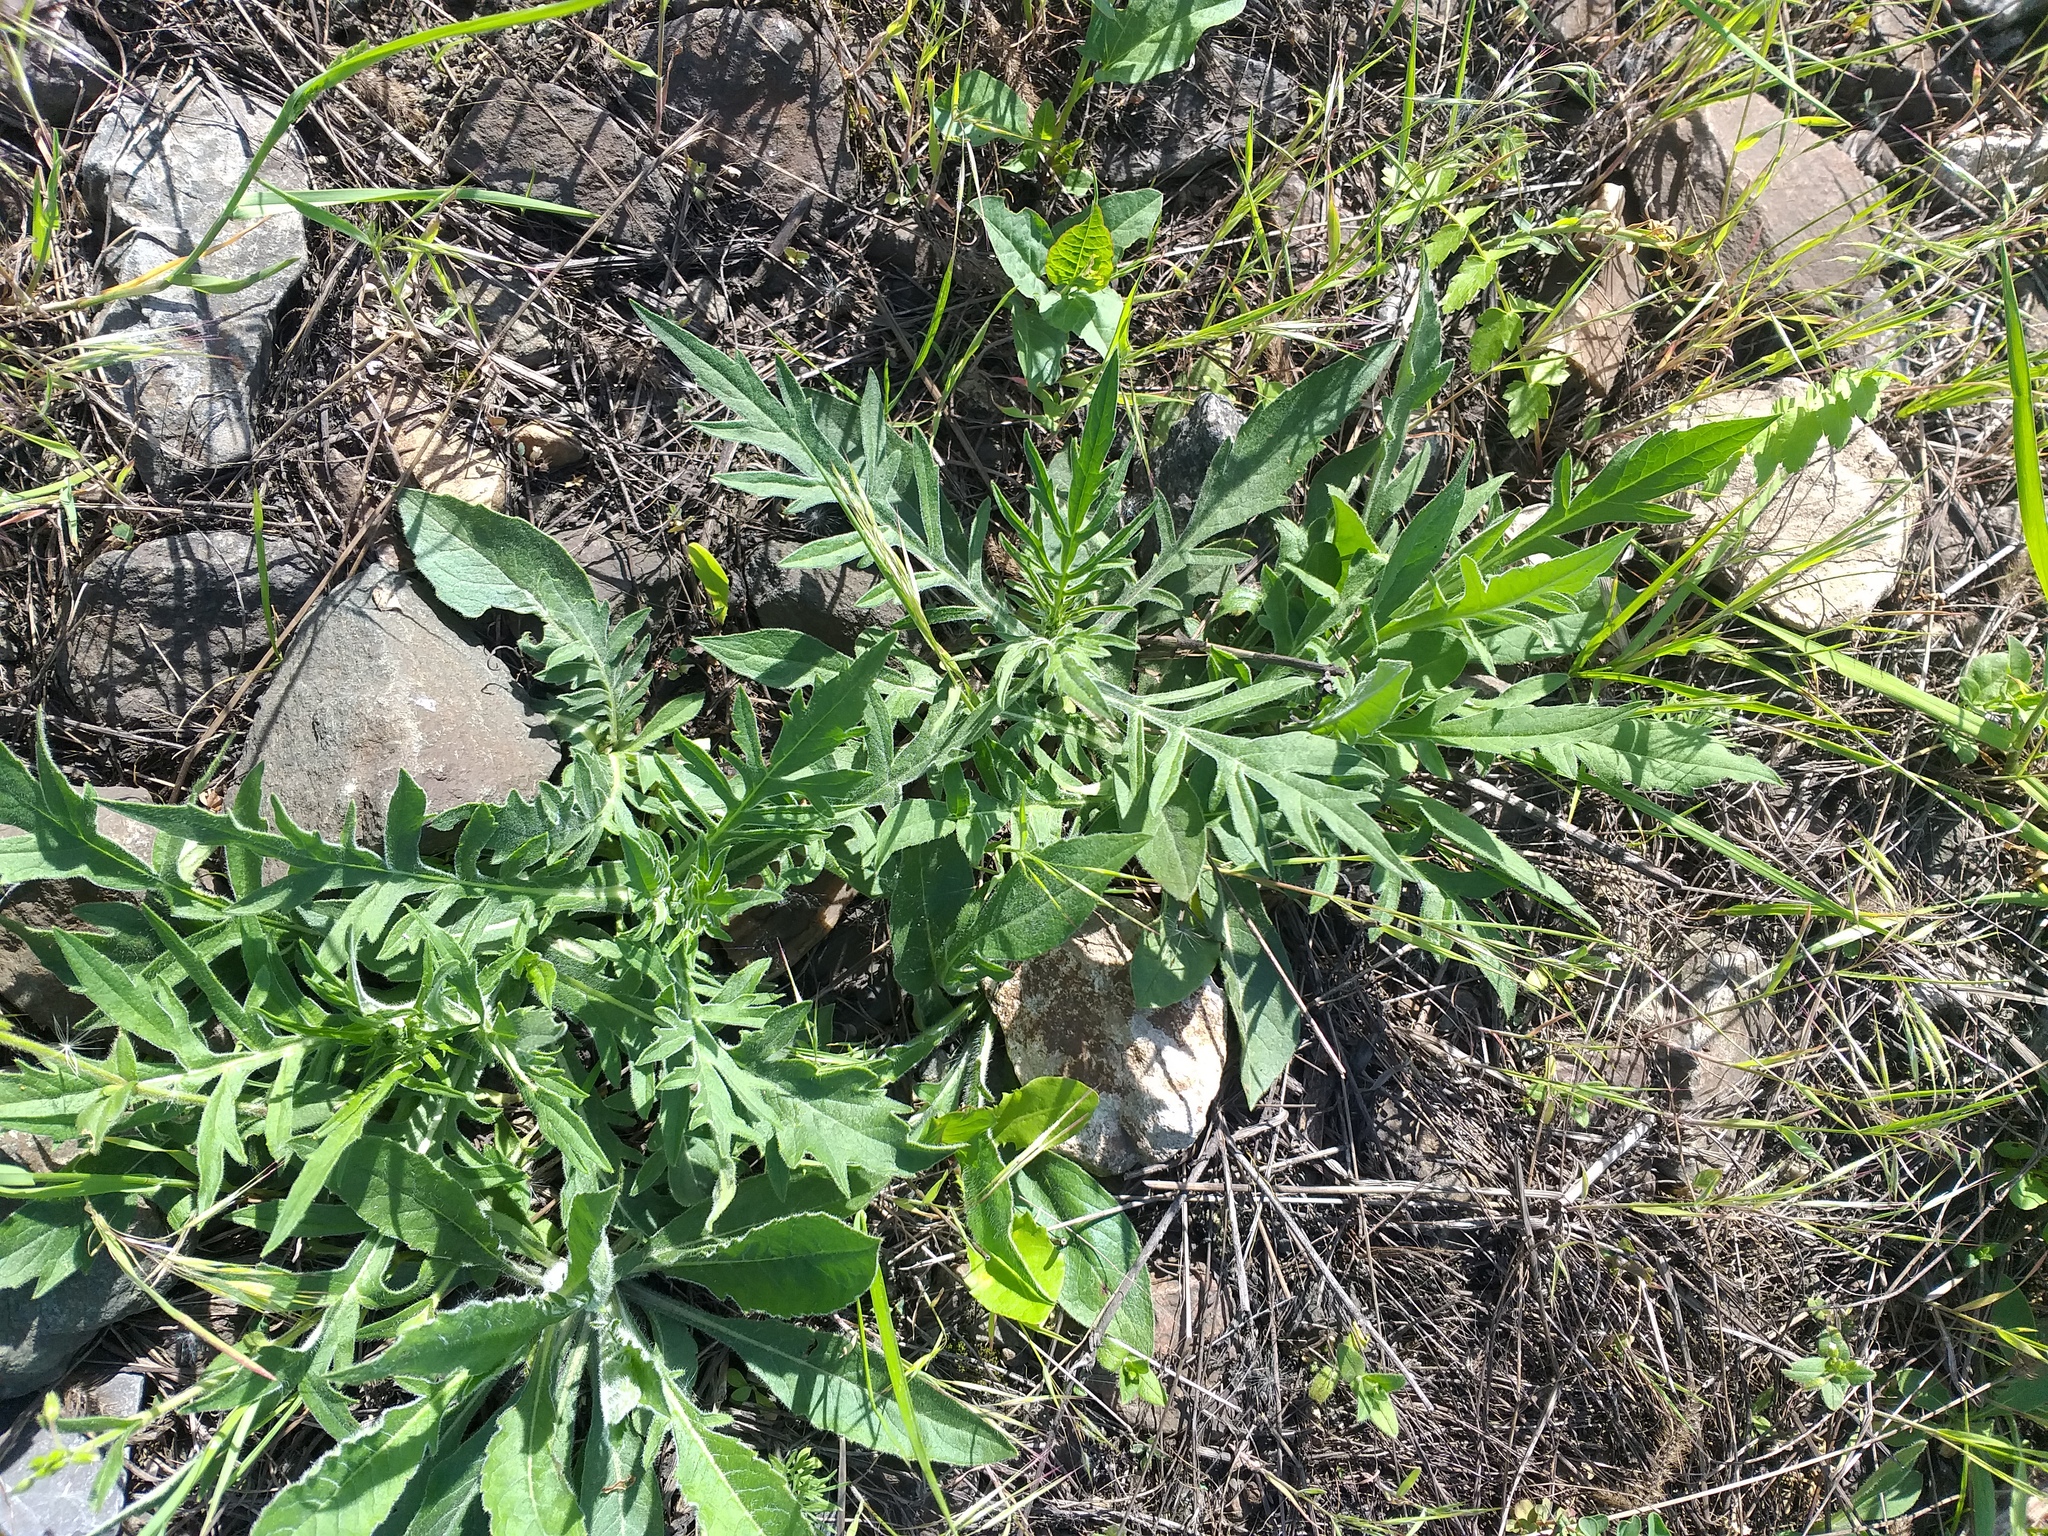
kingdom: Plantae
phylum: Tracheophyta
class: Magnoliopsida
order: Dipsacales
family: Caprifoliaceae
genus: Knautia
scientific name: Knautia arvensis
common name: Field scabiosa
